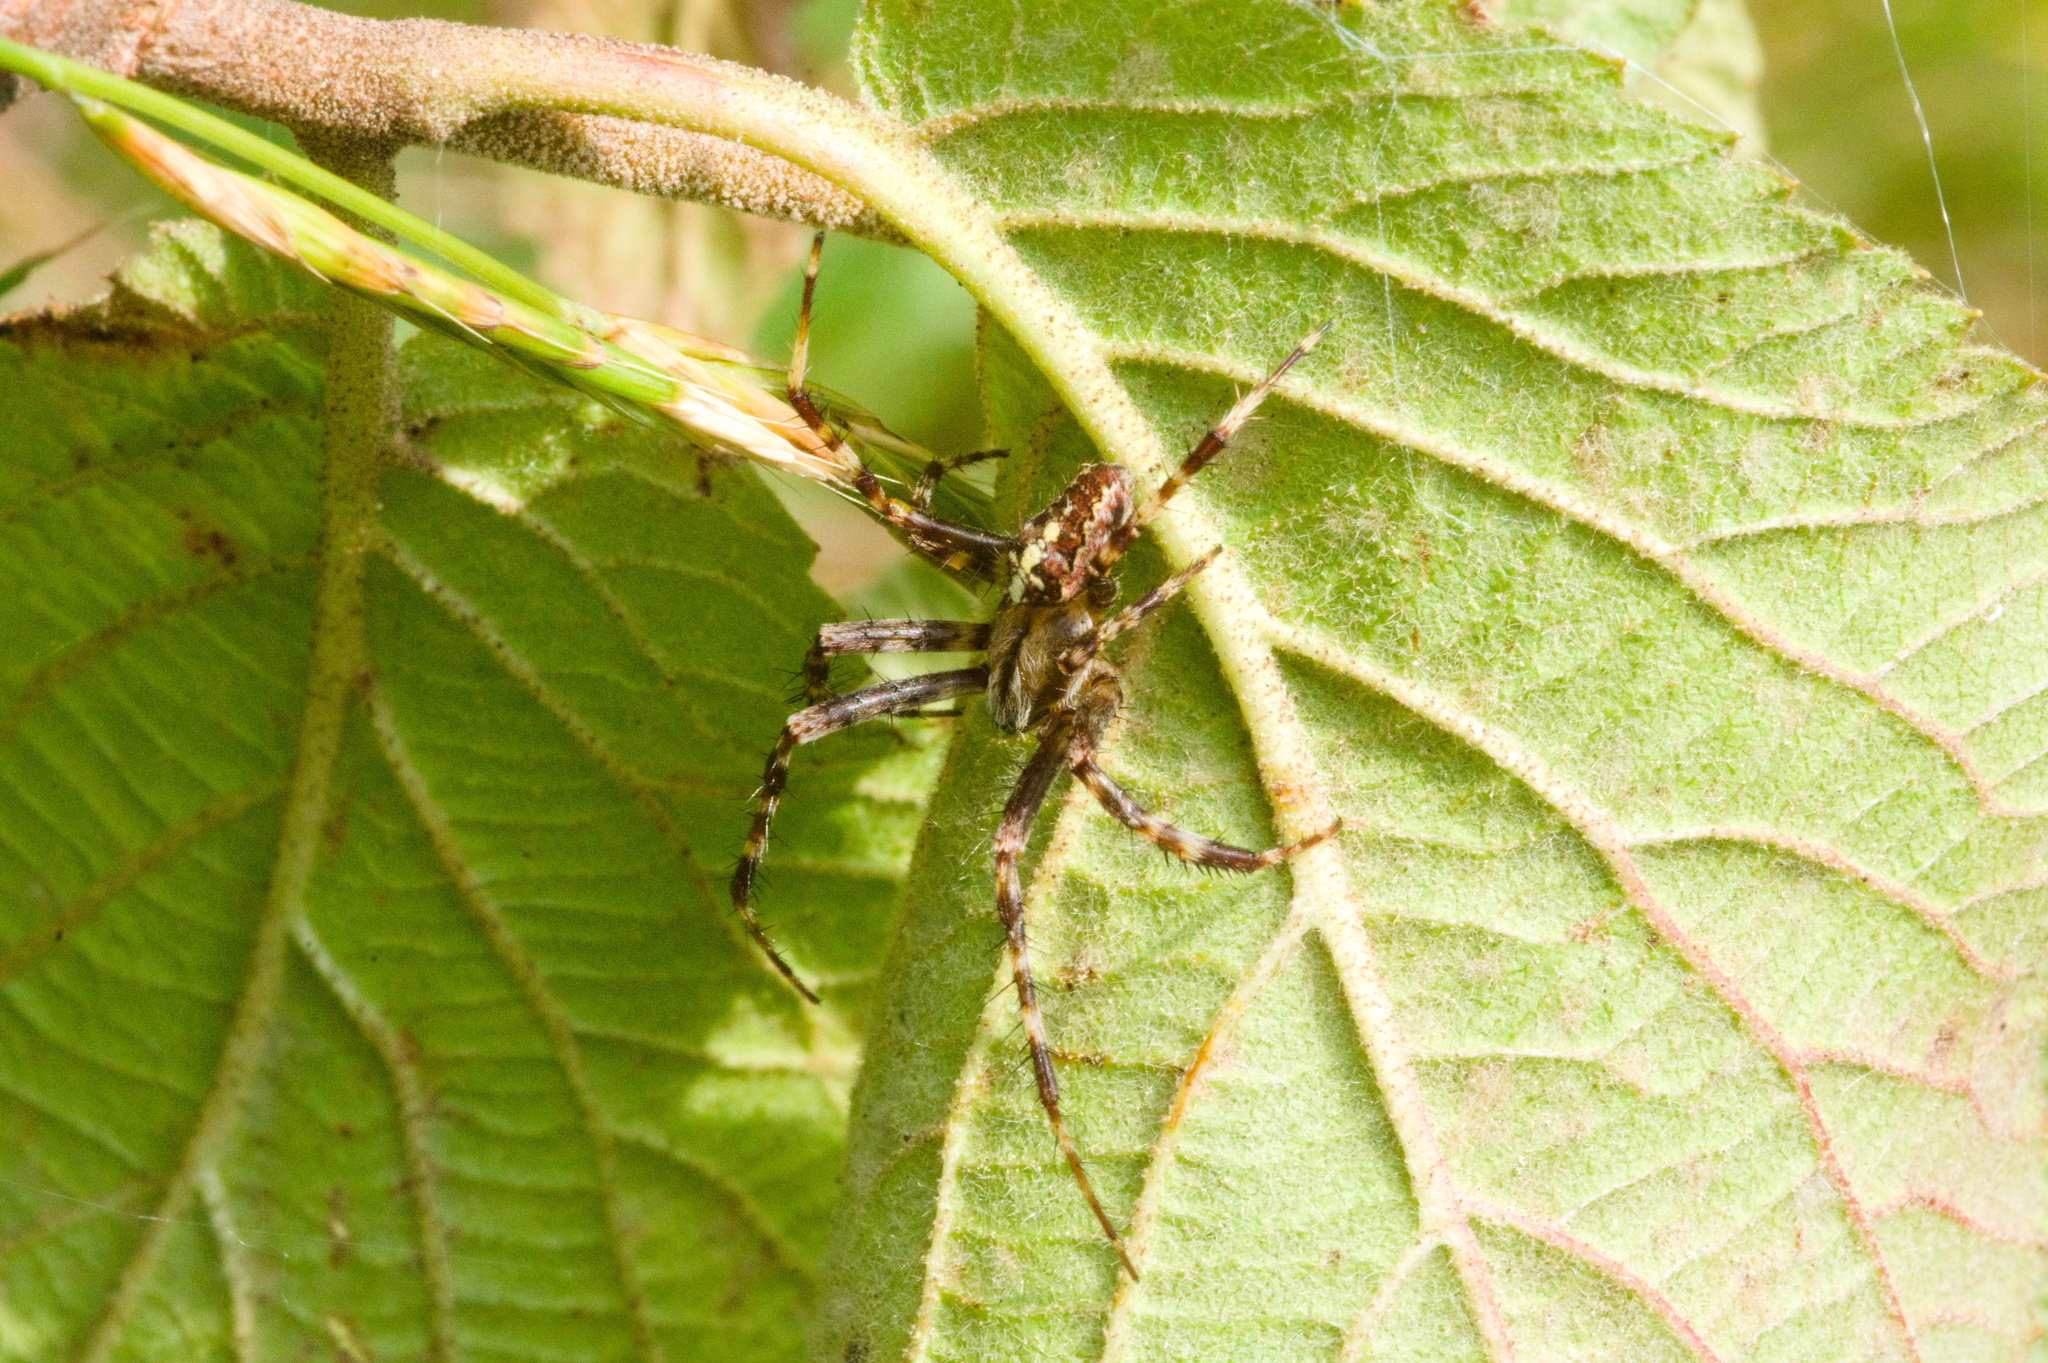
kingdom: Animalia
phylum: Arthropoda
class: Arachnida
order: Araneae
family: Araneidae
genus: Araneus
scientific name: Araneus diadematus
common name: Cross orbweaver
